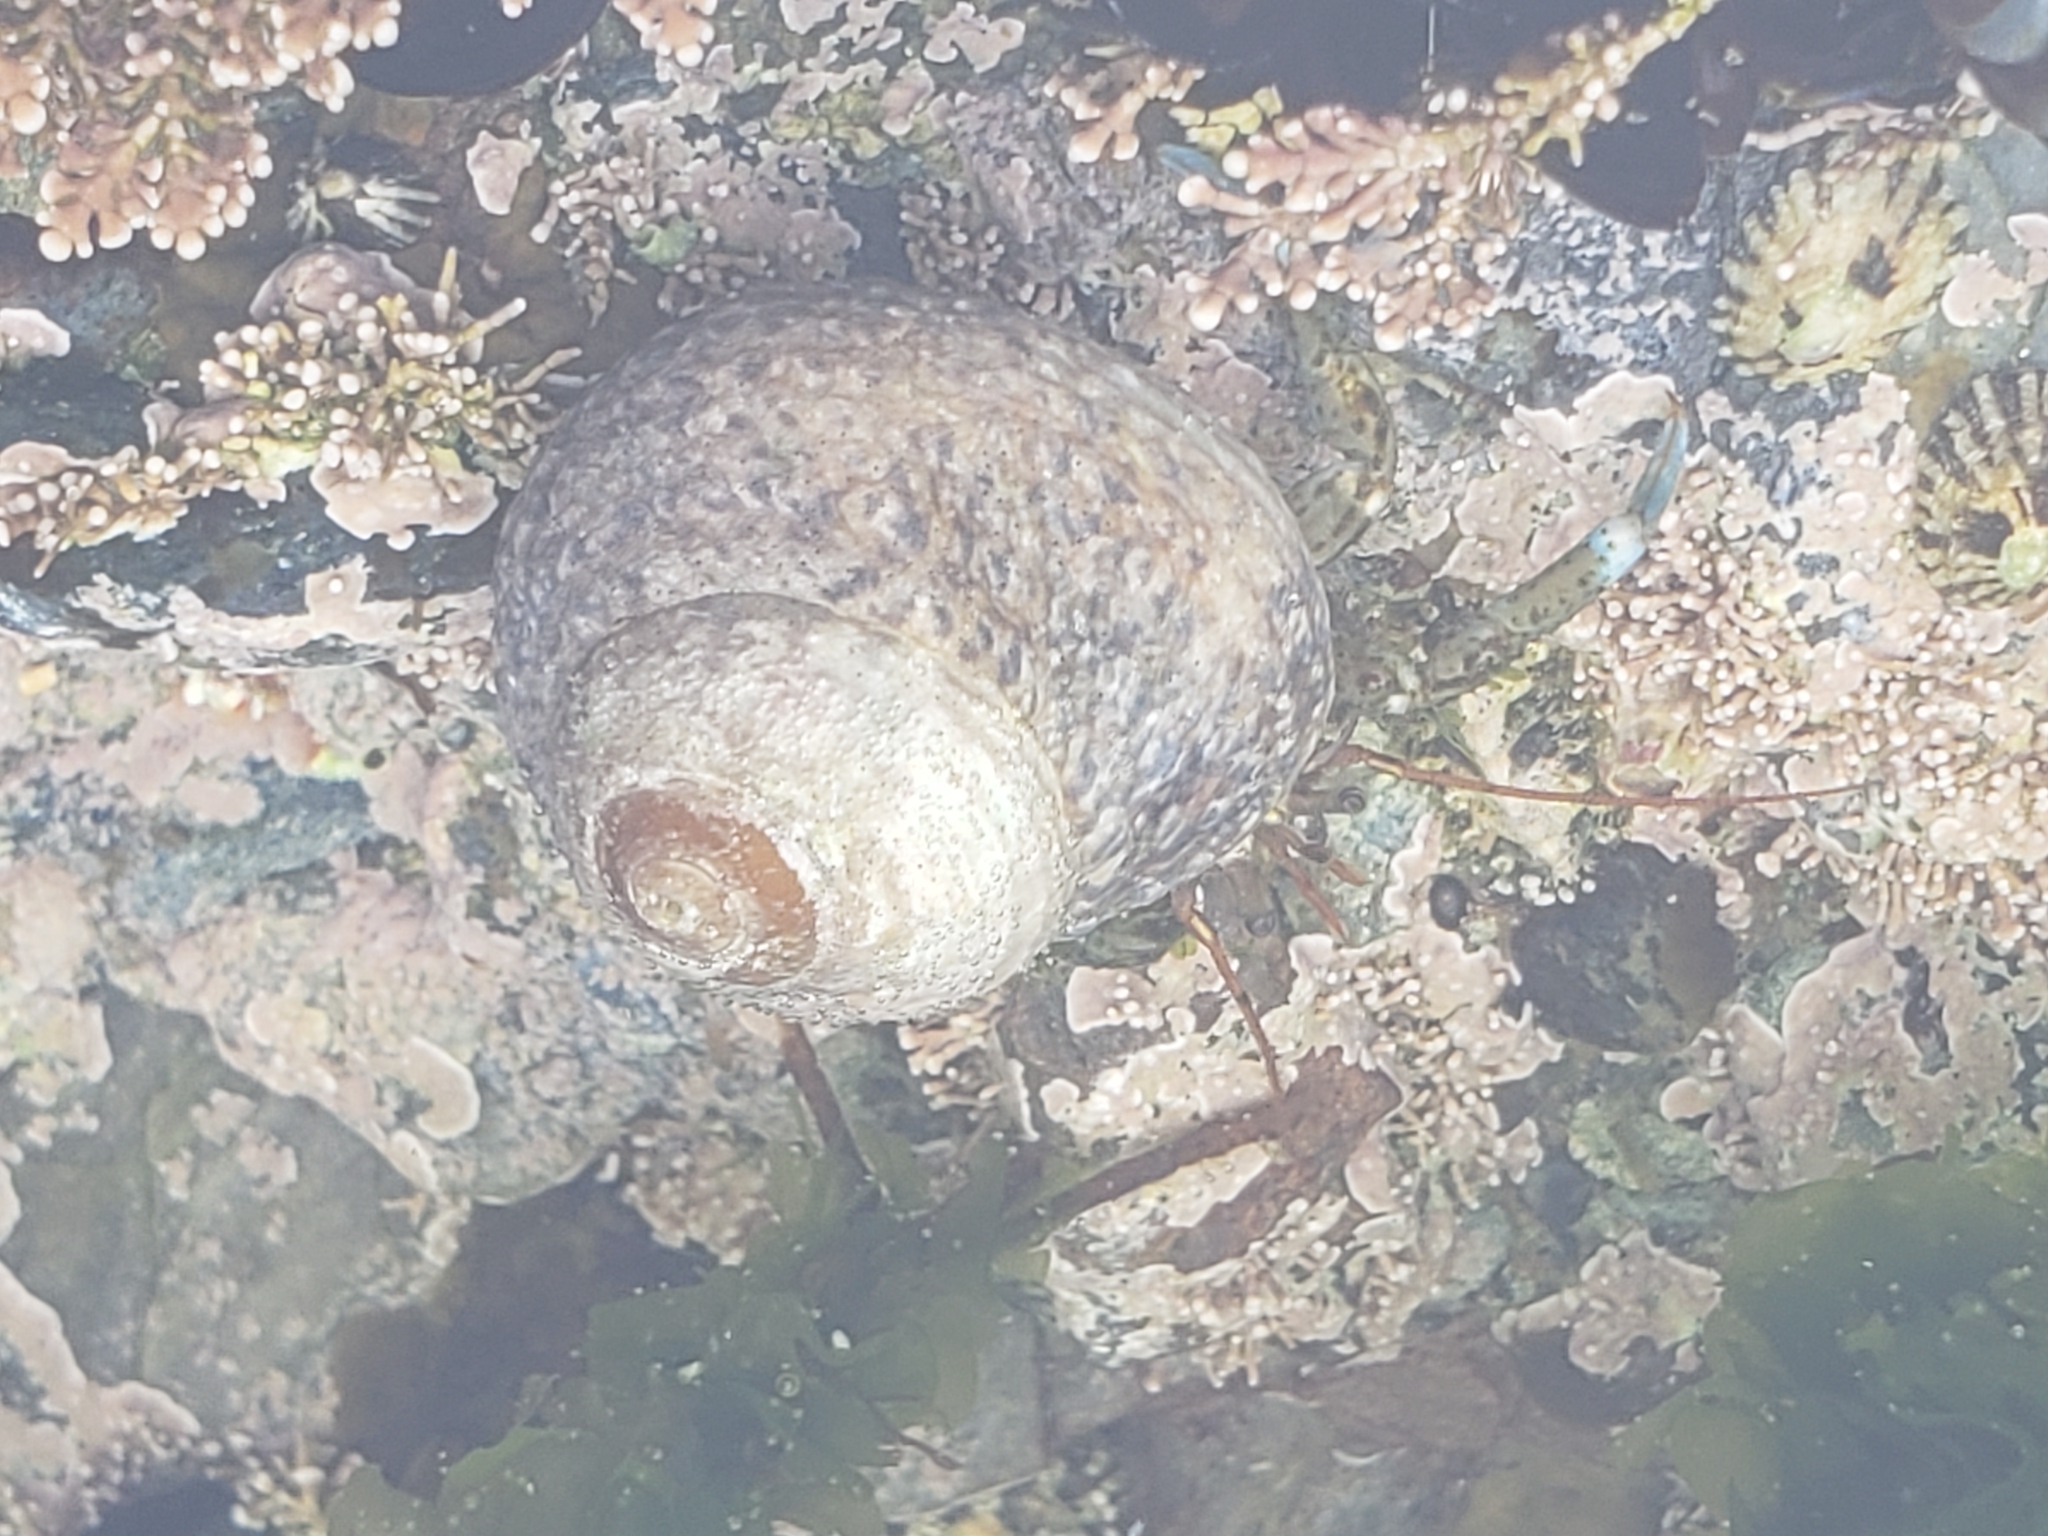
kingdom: Animalia
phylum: Arthropoda
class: Malacostraca
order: Decapoda
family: Paguridae
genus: Pagurus
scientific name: Pagurus samuelis
